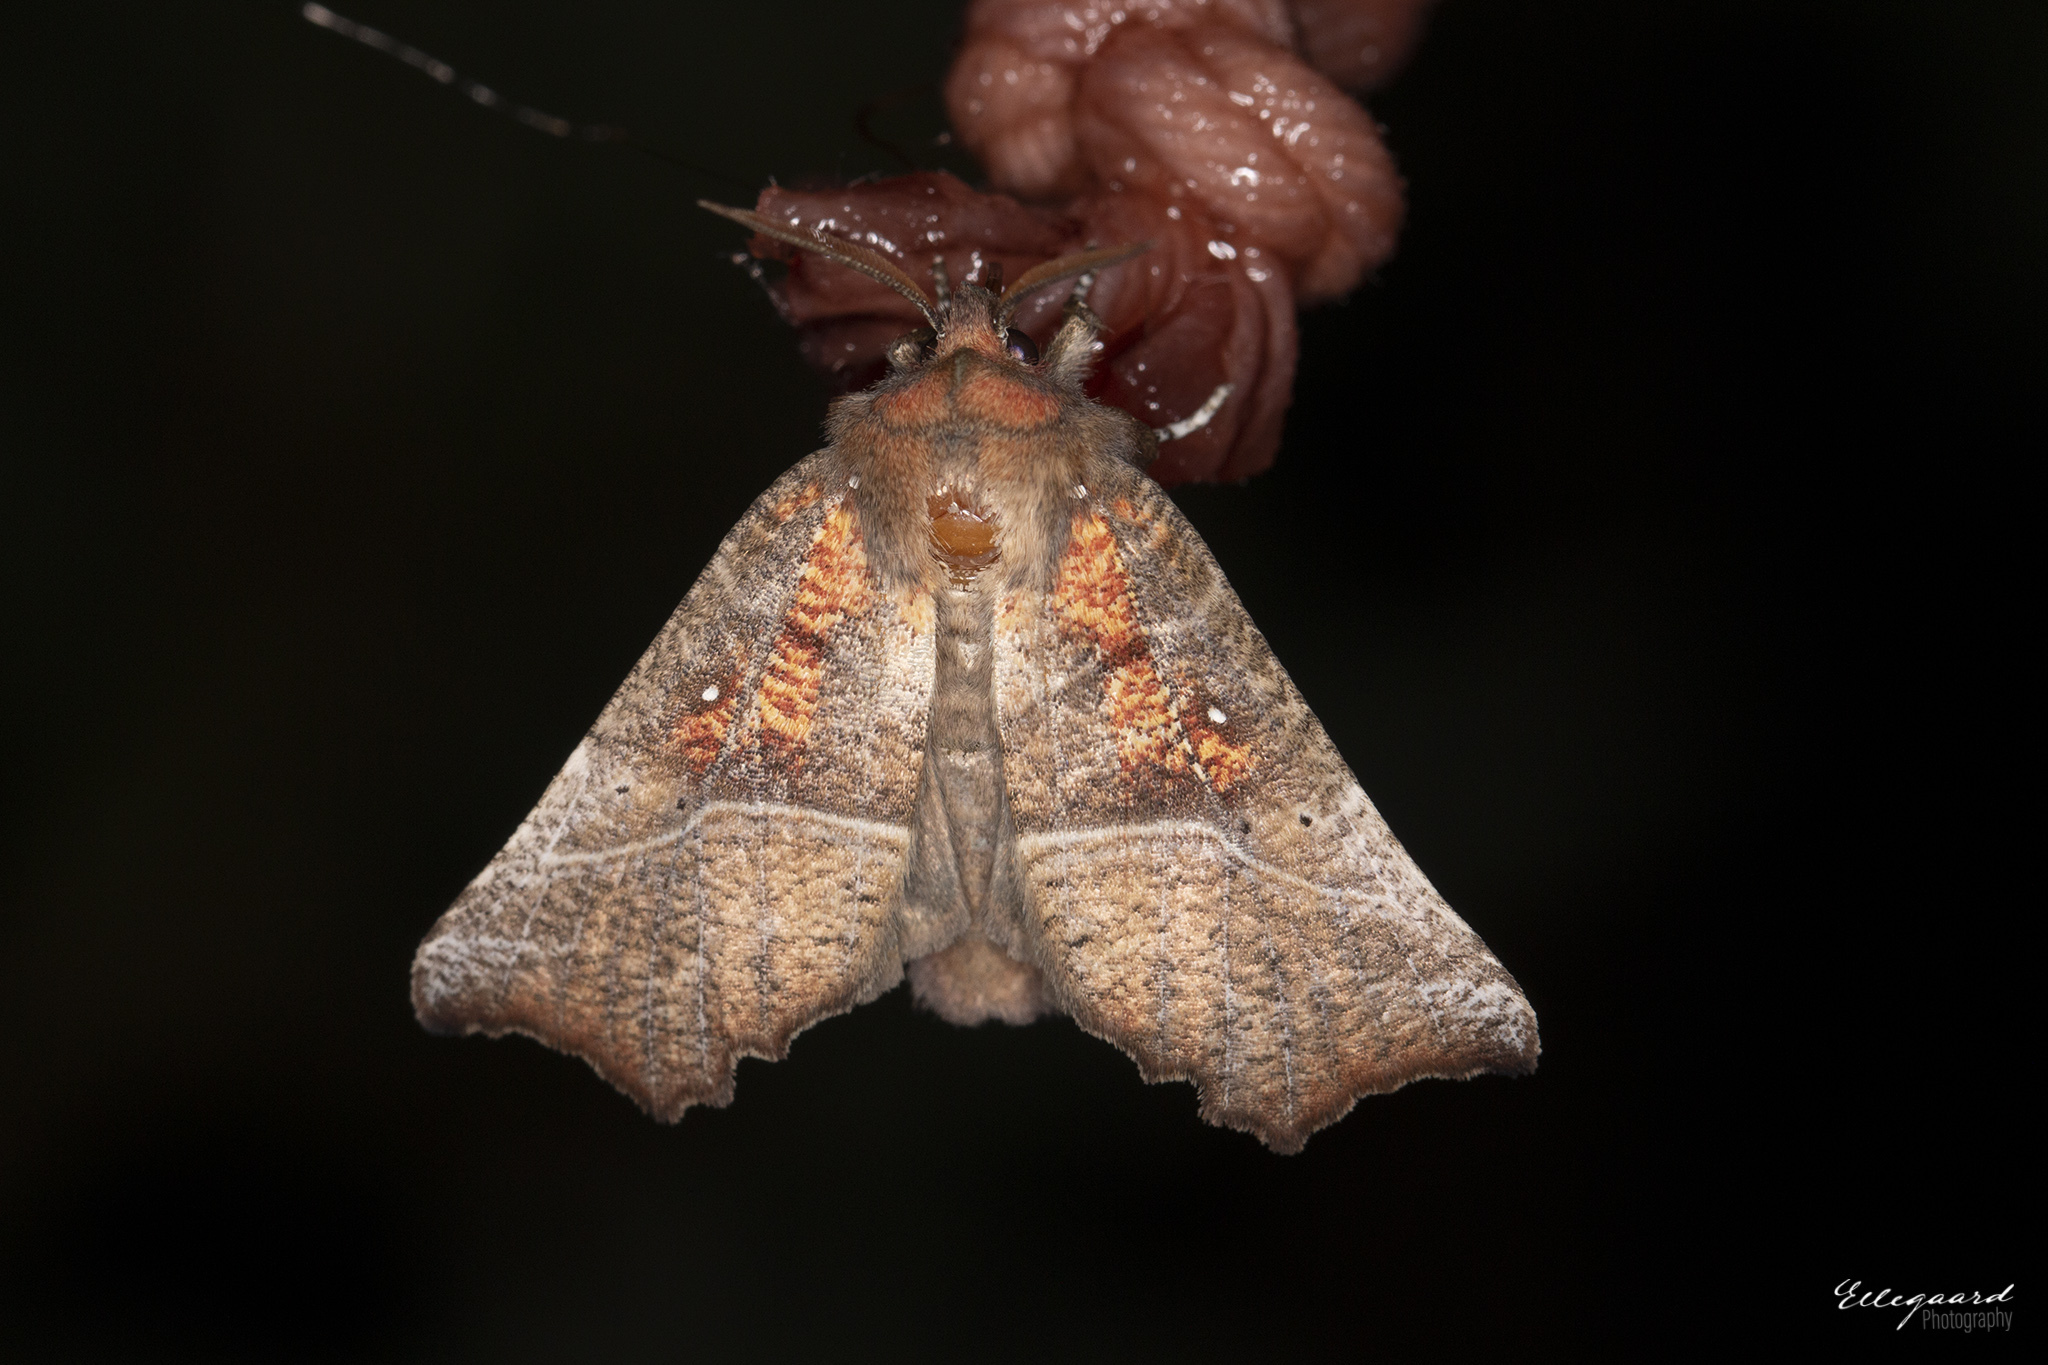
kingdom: Animalia
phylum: Arthropoda
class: Insecta
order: Lepidoptera
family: Erebidae
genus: Scoliopteryx
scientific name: Scoliopteryx libatrix
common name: Herald
